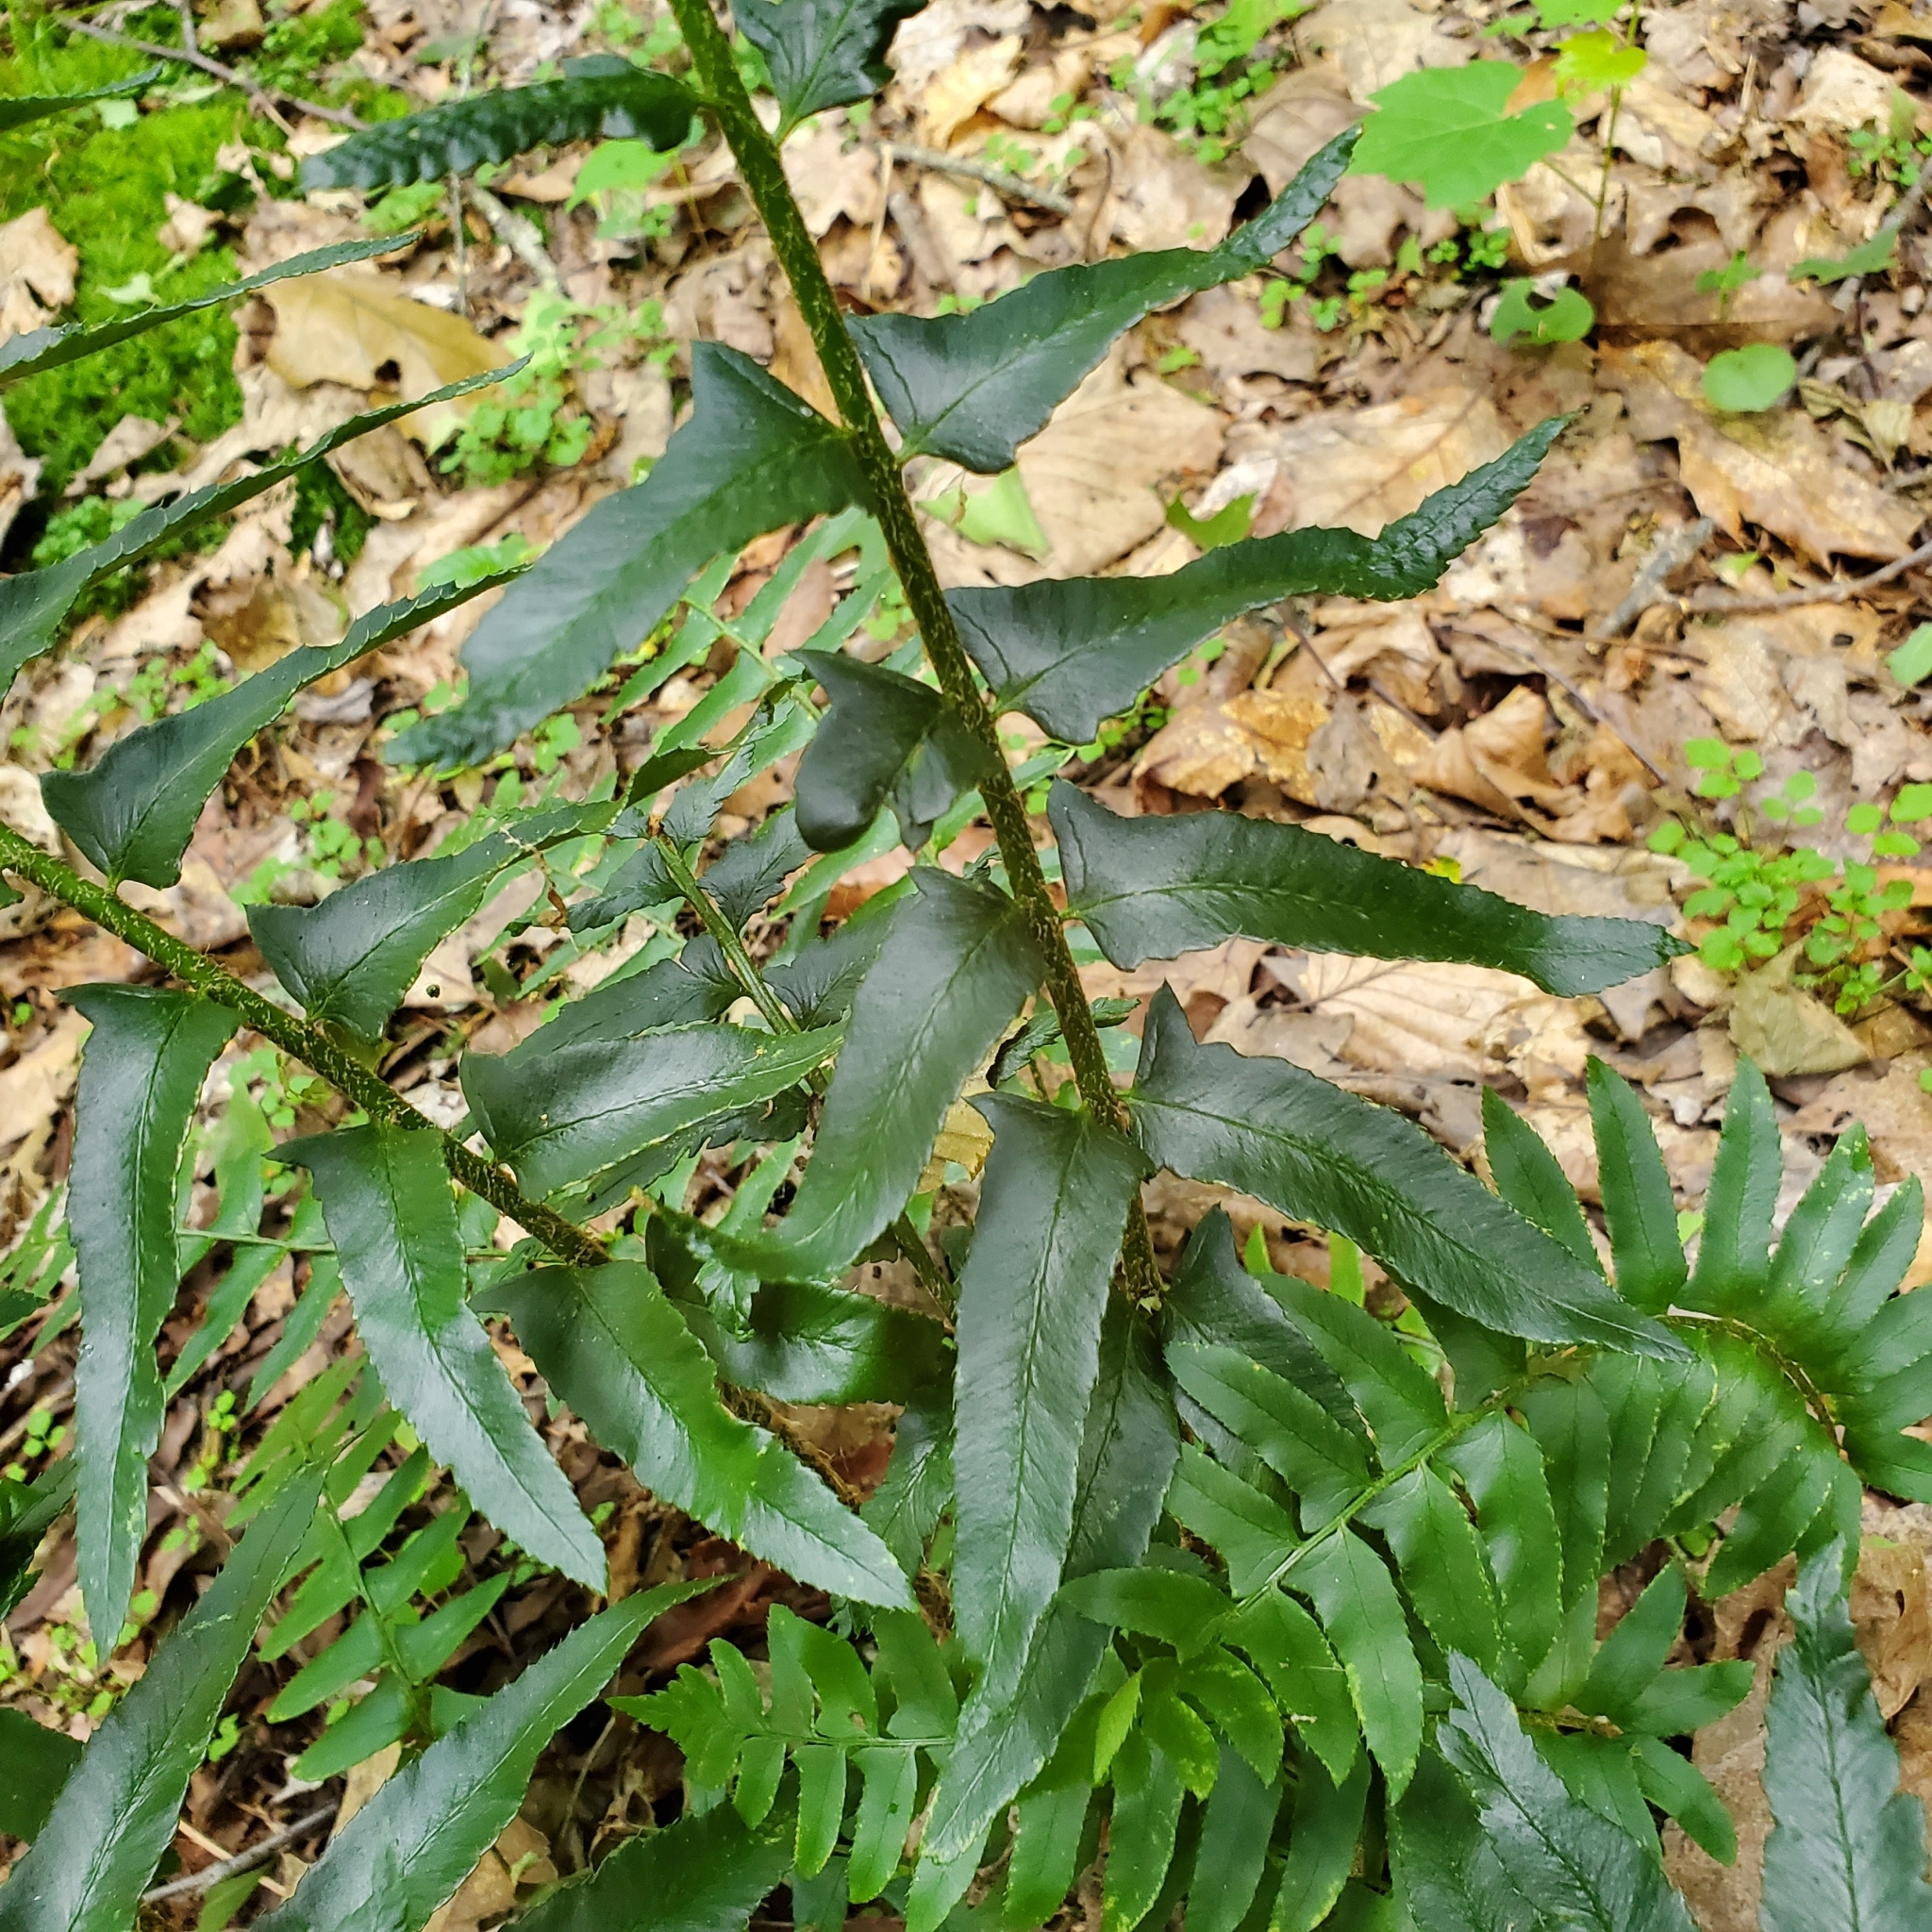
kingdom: Plantae
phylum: Tracheophyta
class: Polypodiopsida
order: Polypodiales
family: Dryopteridaceae
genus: Polystichum
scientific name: Polystichum acrostichoides
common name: Christmas fern
